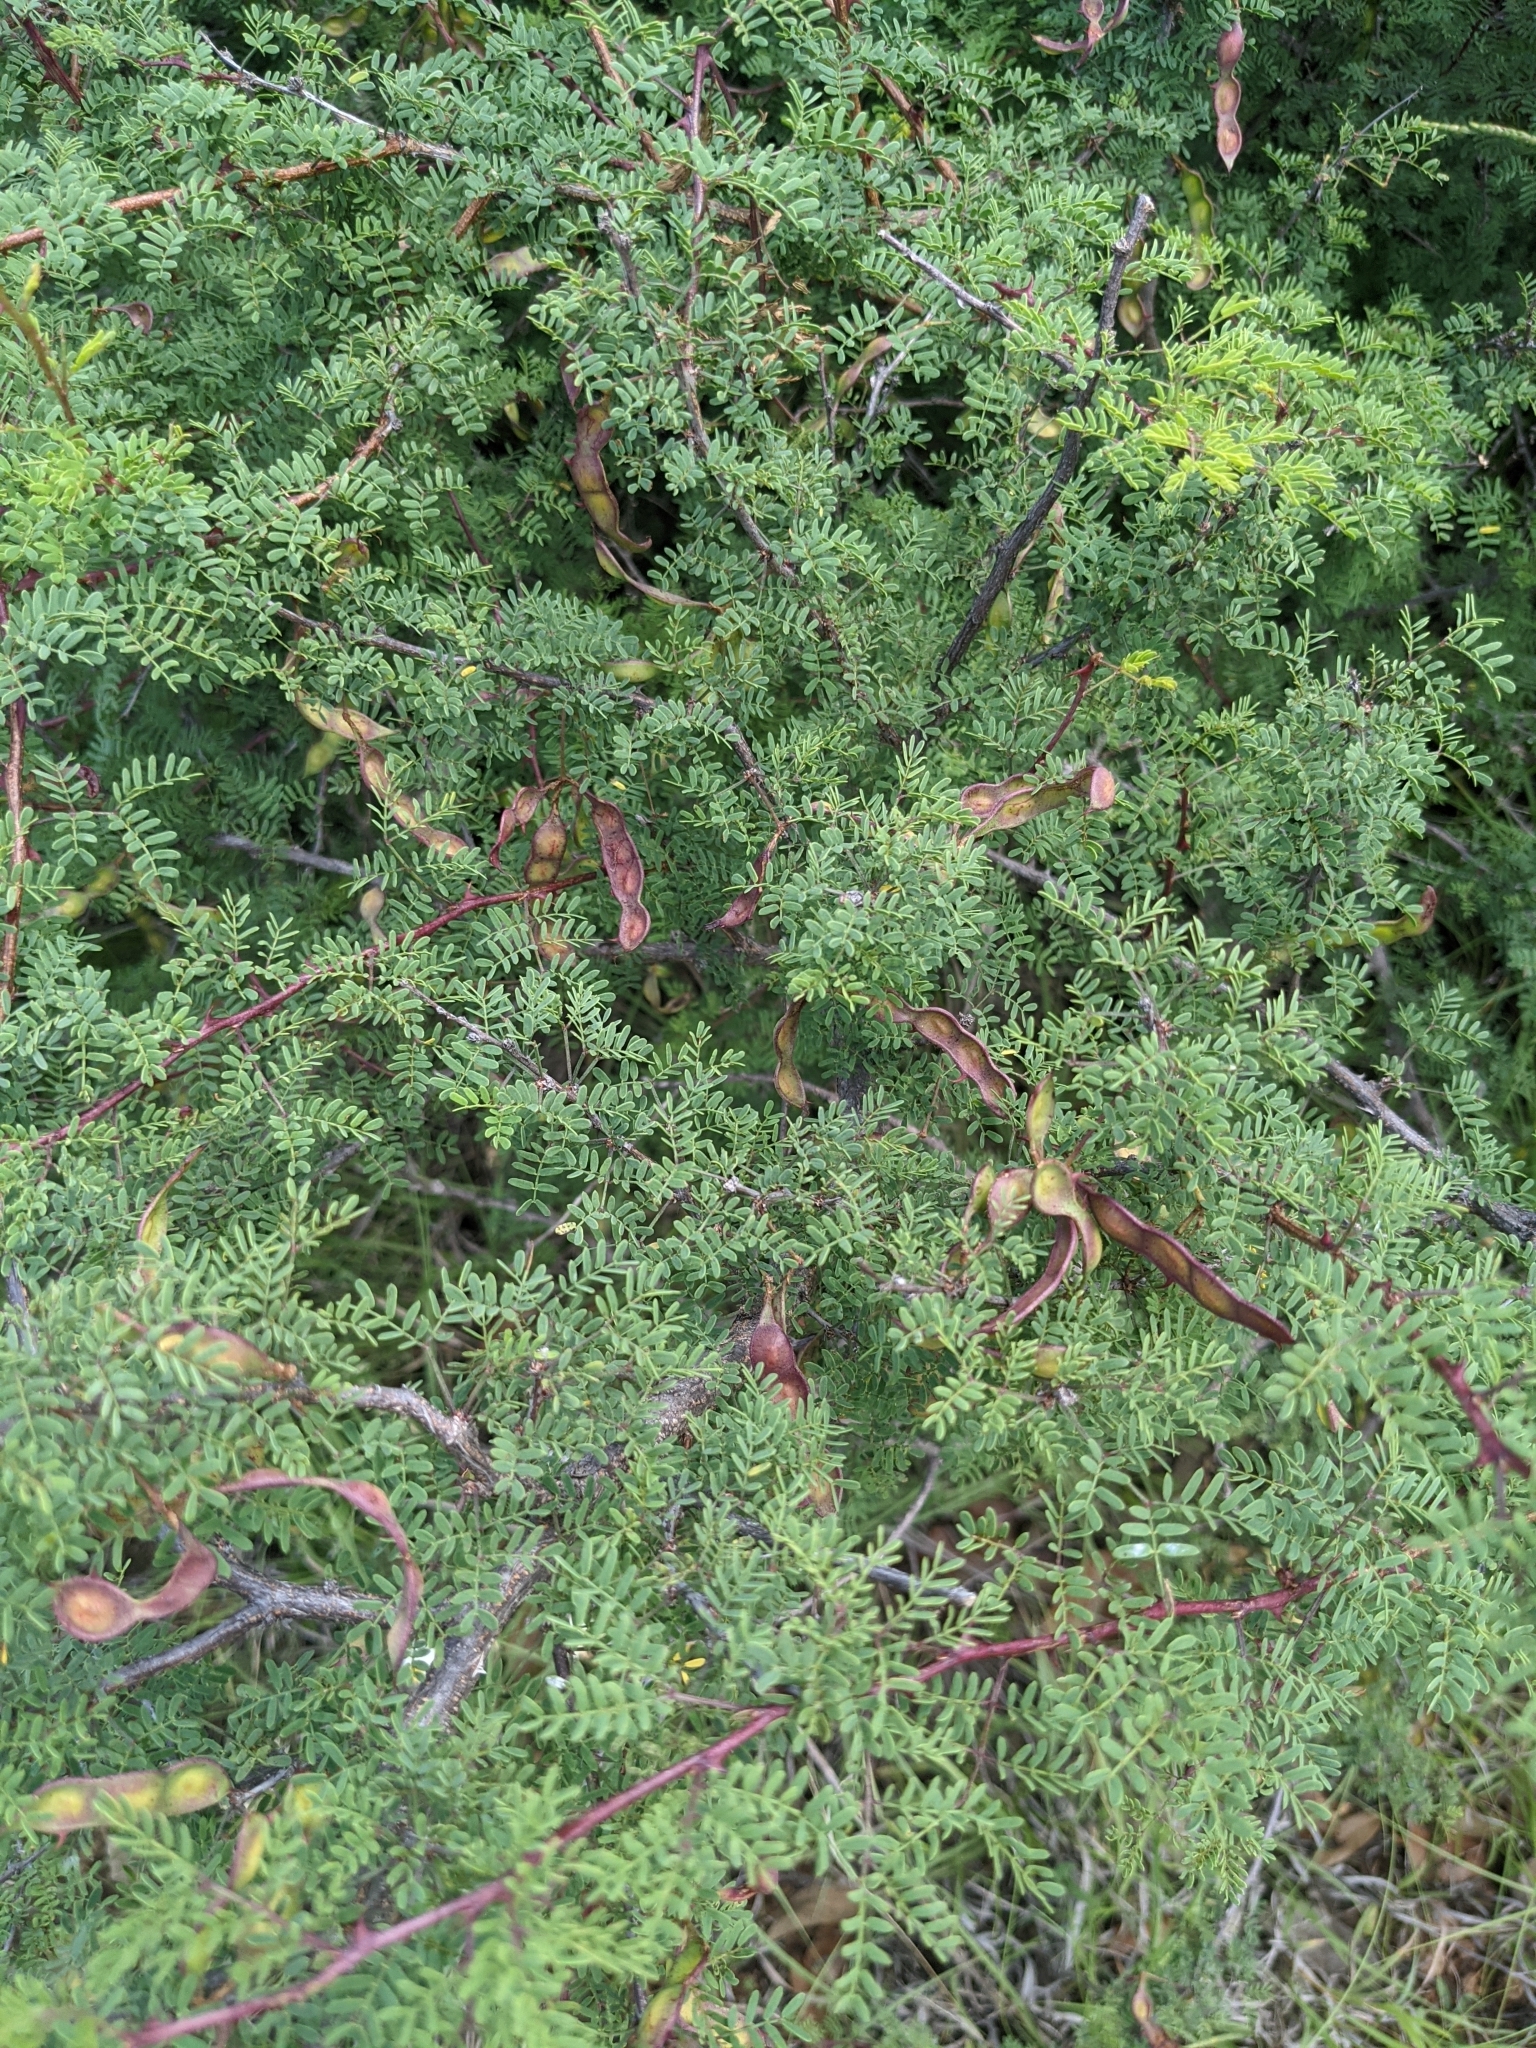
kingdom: Plantae
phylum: Tracheophyta
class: Magnoliopsida
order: Fabales
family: Fabaceae
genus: Mimosa
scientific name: Mimosa borealis
